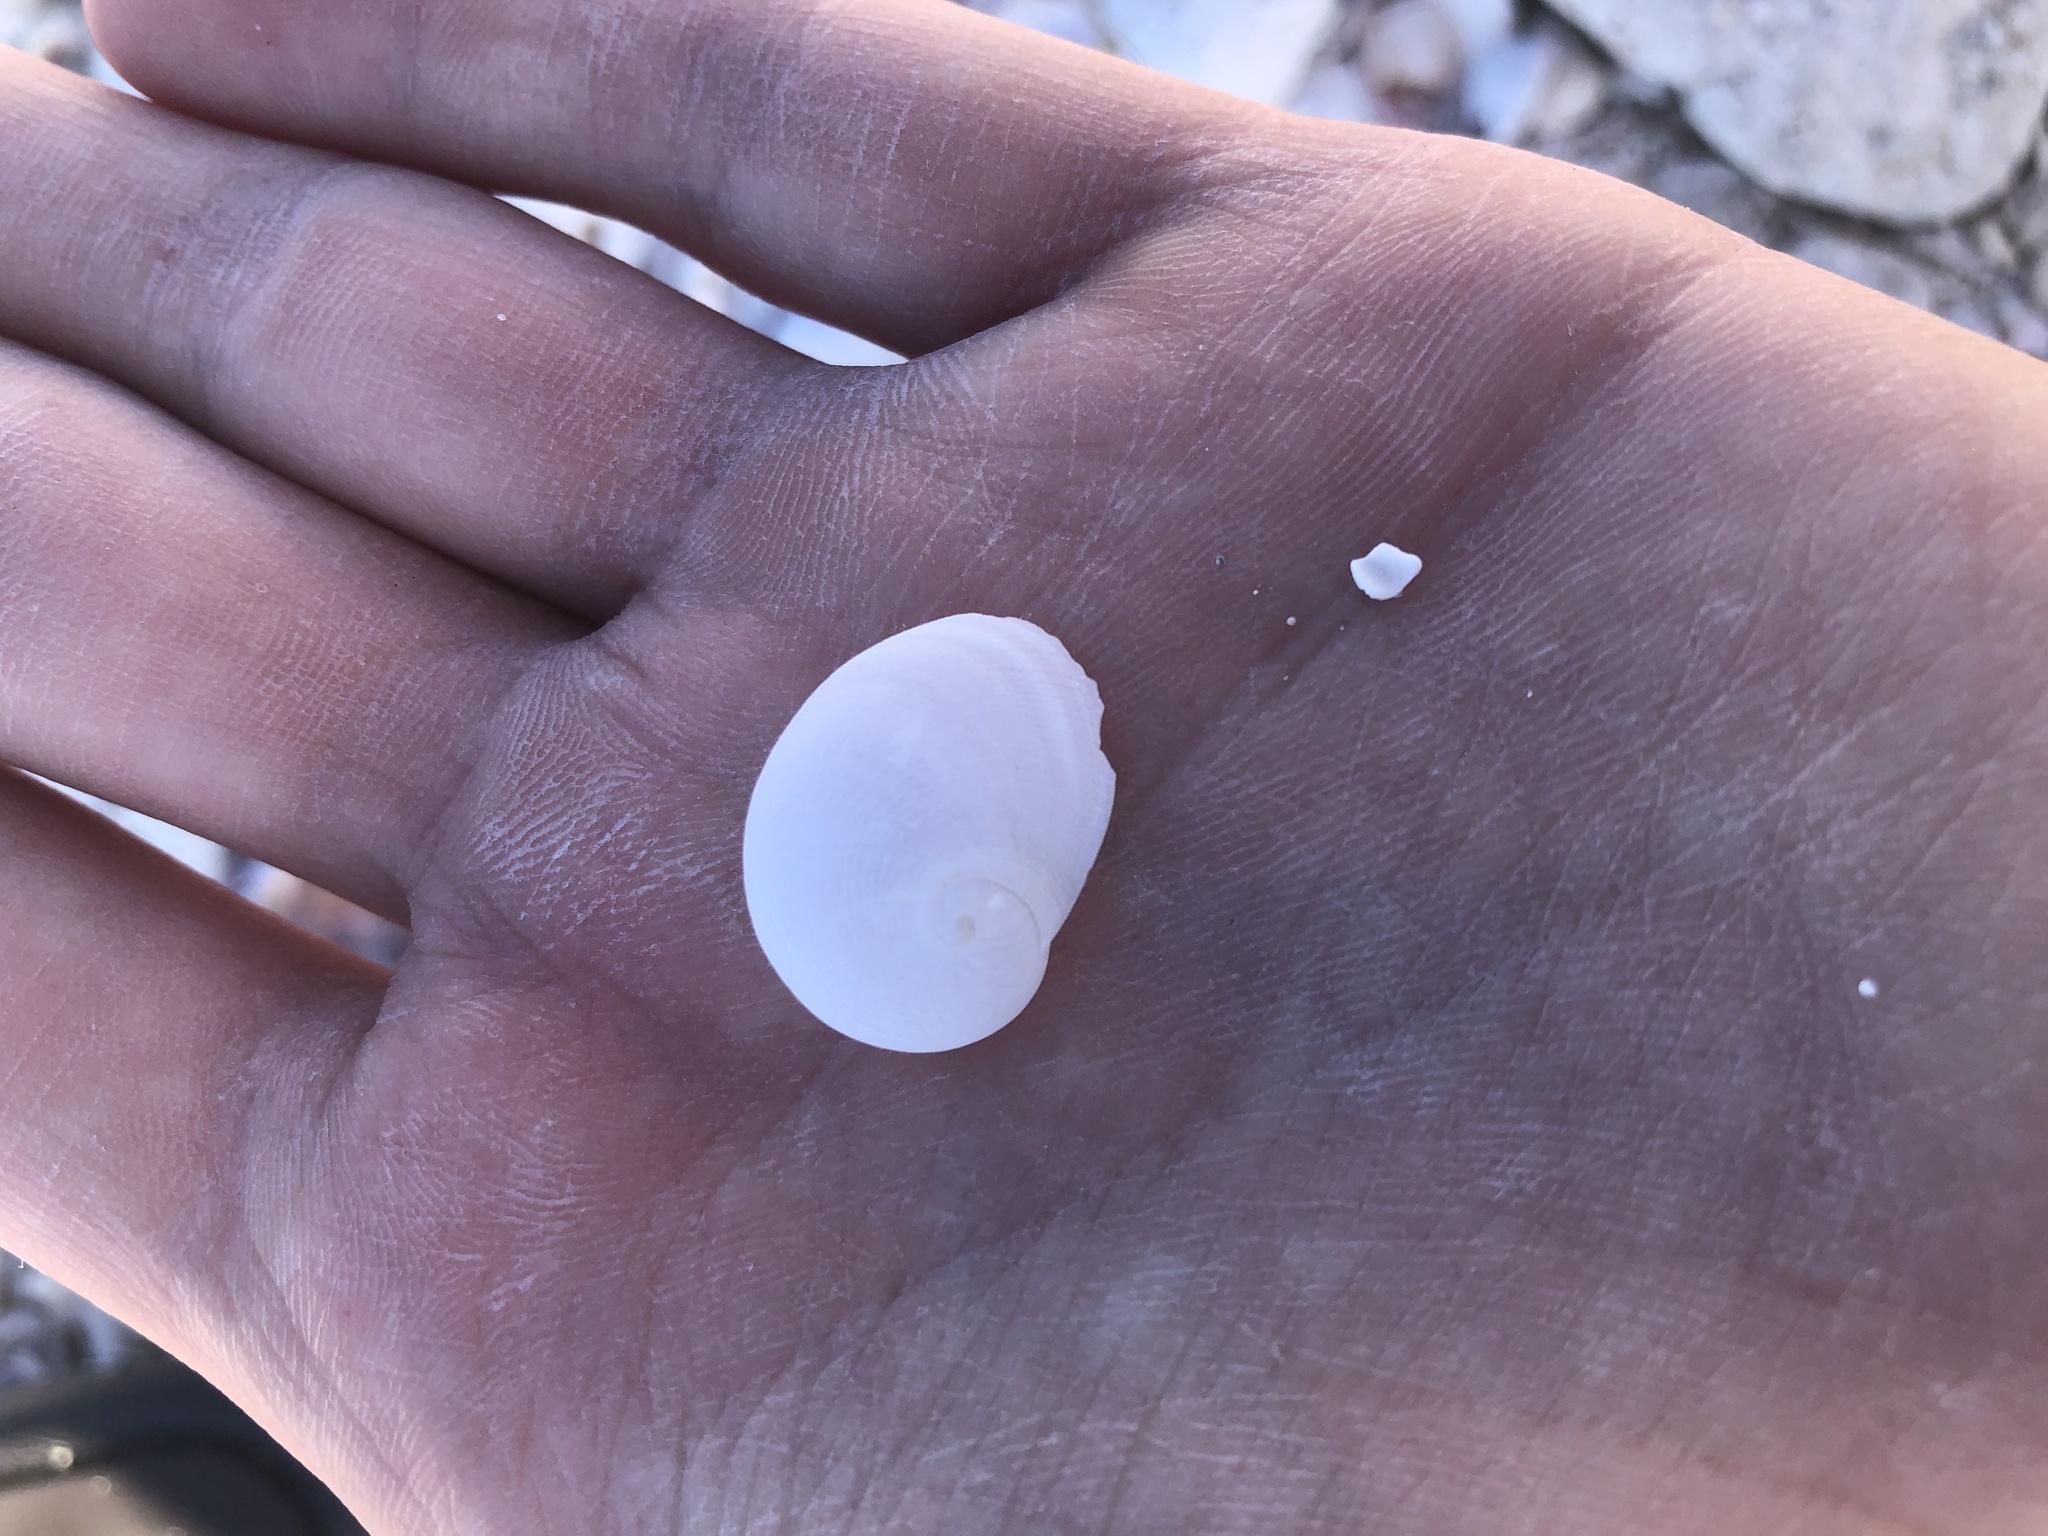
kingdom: Animalia
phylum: Mollusca
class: Gastropoda
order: Littorinimorpha
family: Naticidae
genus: Sinum
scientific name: Sinum perspectivum
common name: White baby ear
